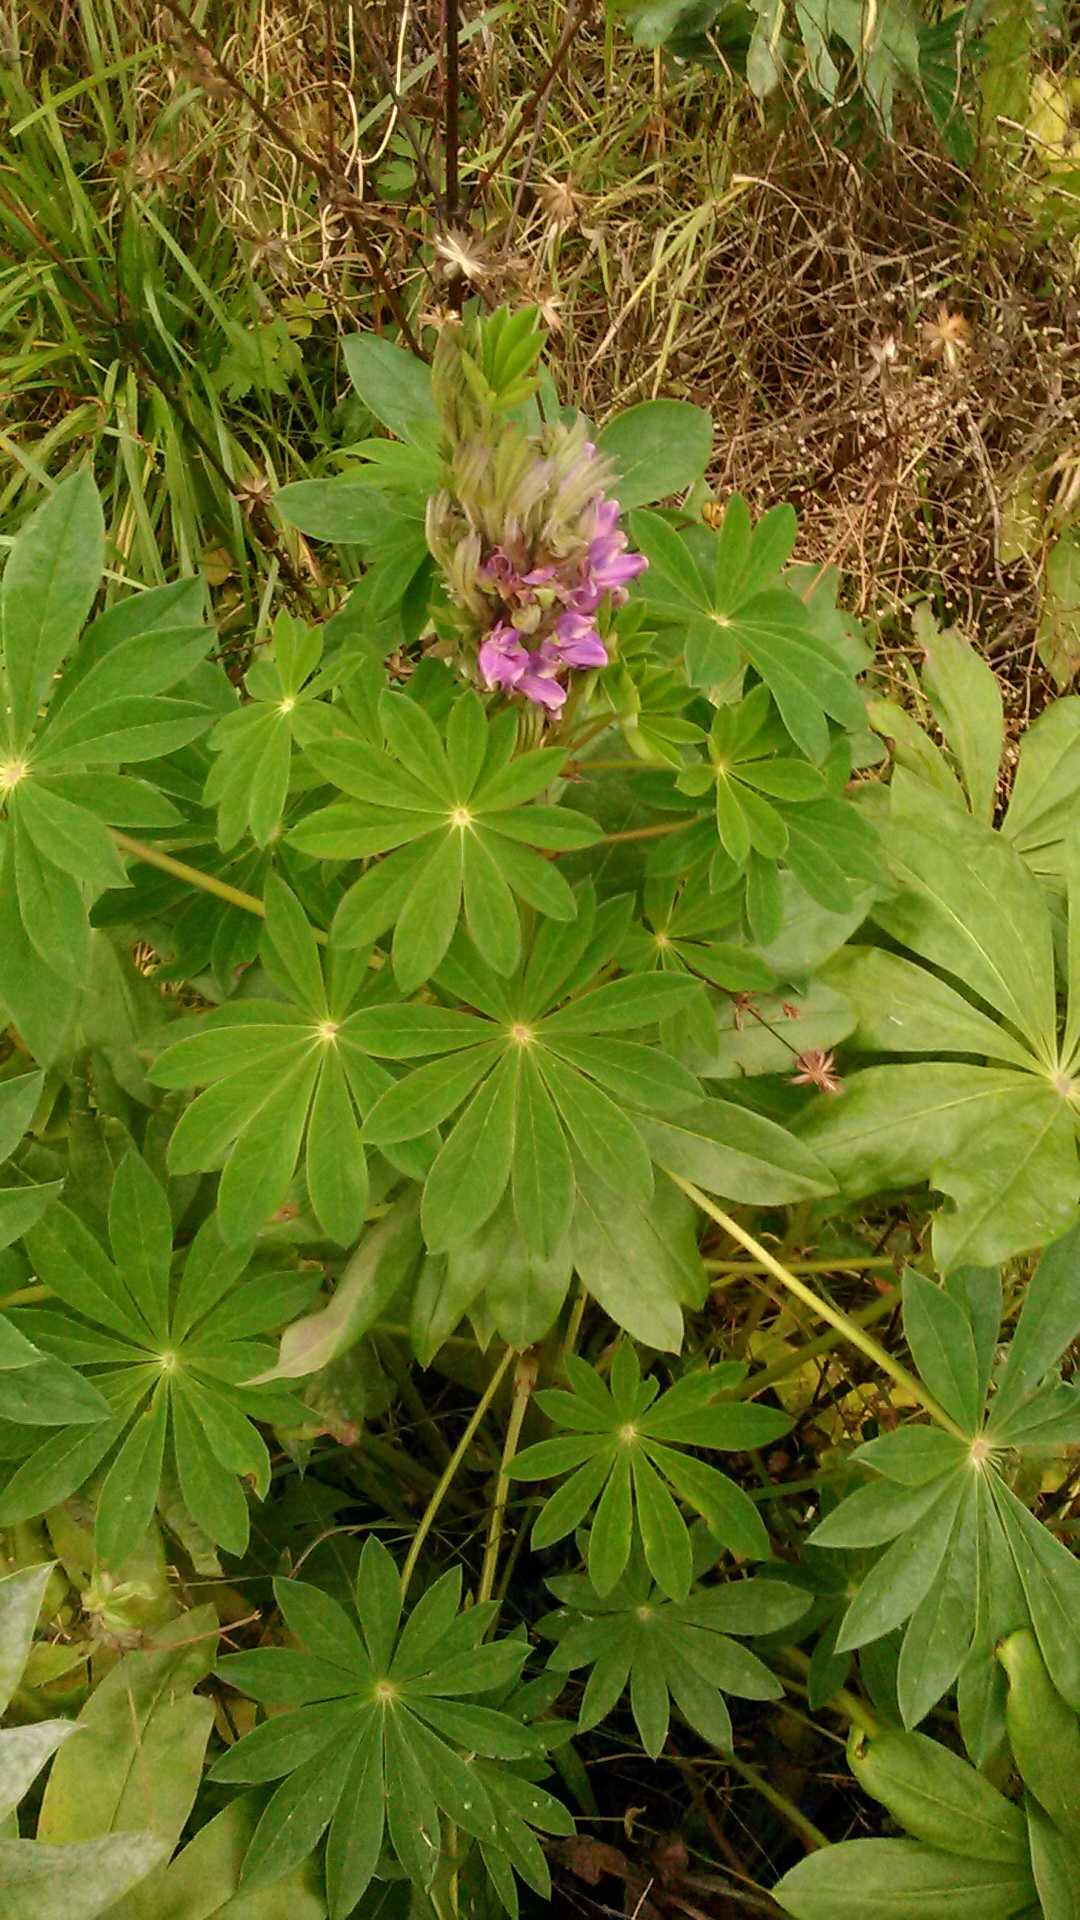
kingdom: Plantae
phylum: Tracheophyta
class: Magnoliopsida
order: Fabales
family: Fabaceae
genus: Lupinus
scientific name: Lupinus polyphyllus
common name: Garden lupin
